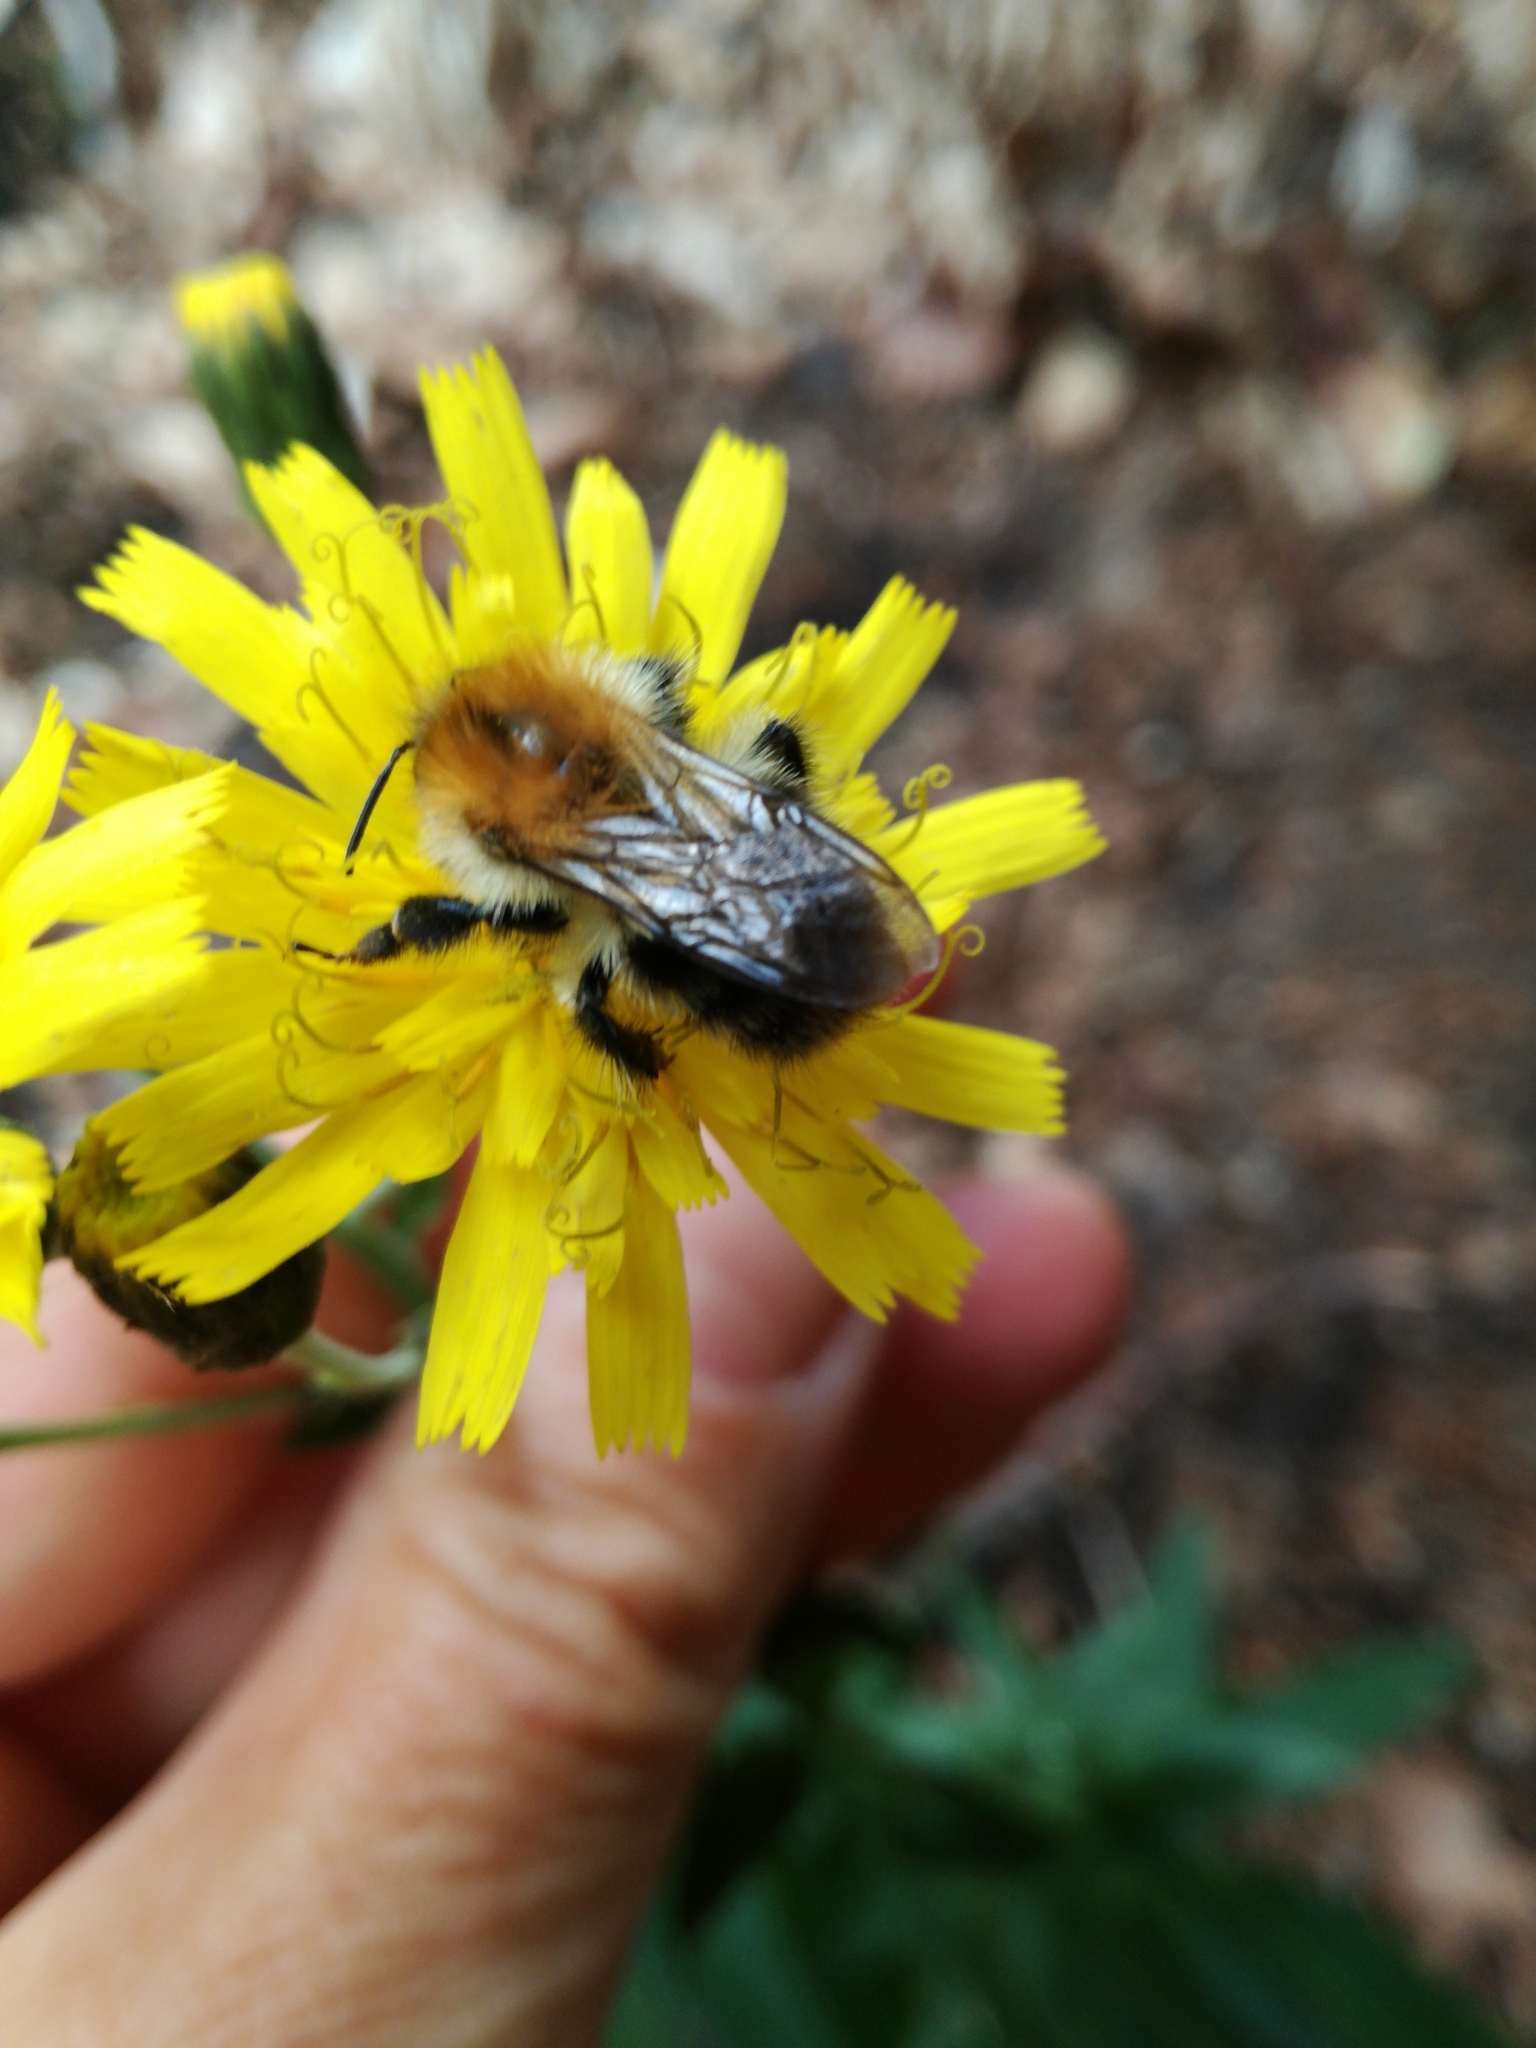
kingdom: Animalia
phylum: Arthropoda
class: Insecta
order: Hymenoptera
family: Apidae
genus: Bombus
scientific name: Bombus pascuorum
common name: Common carder bee
